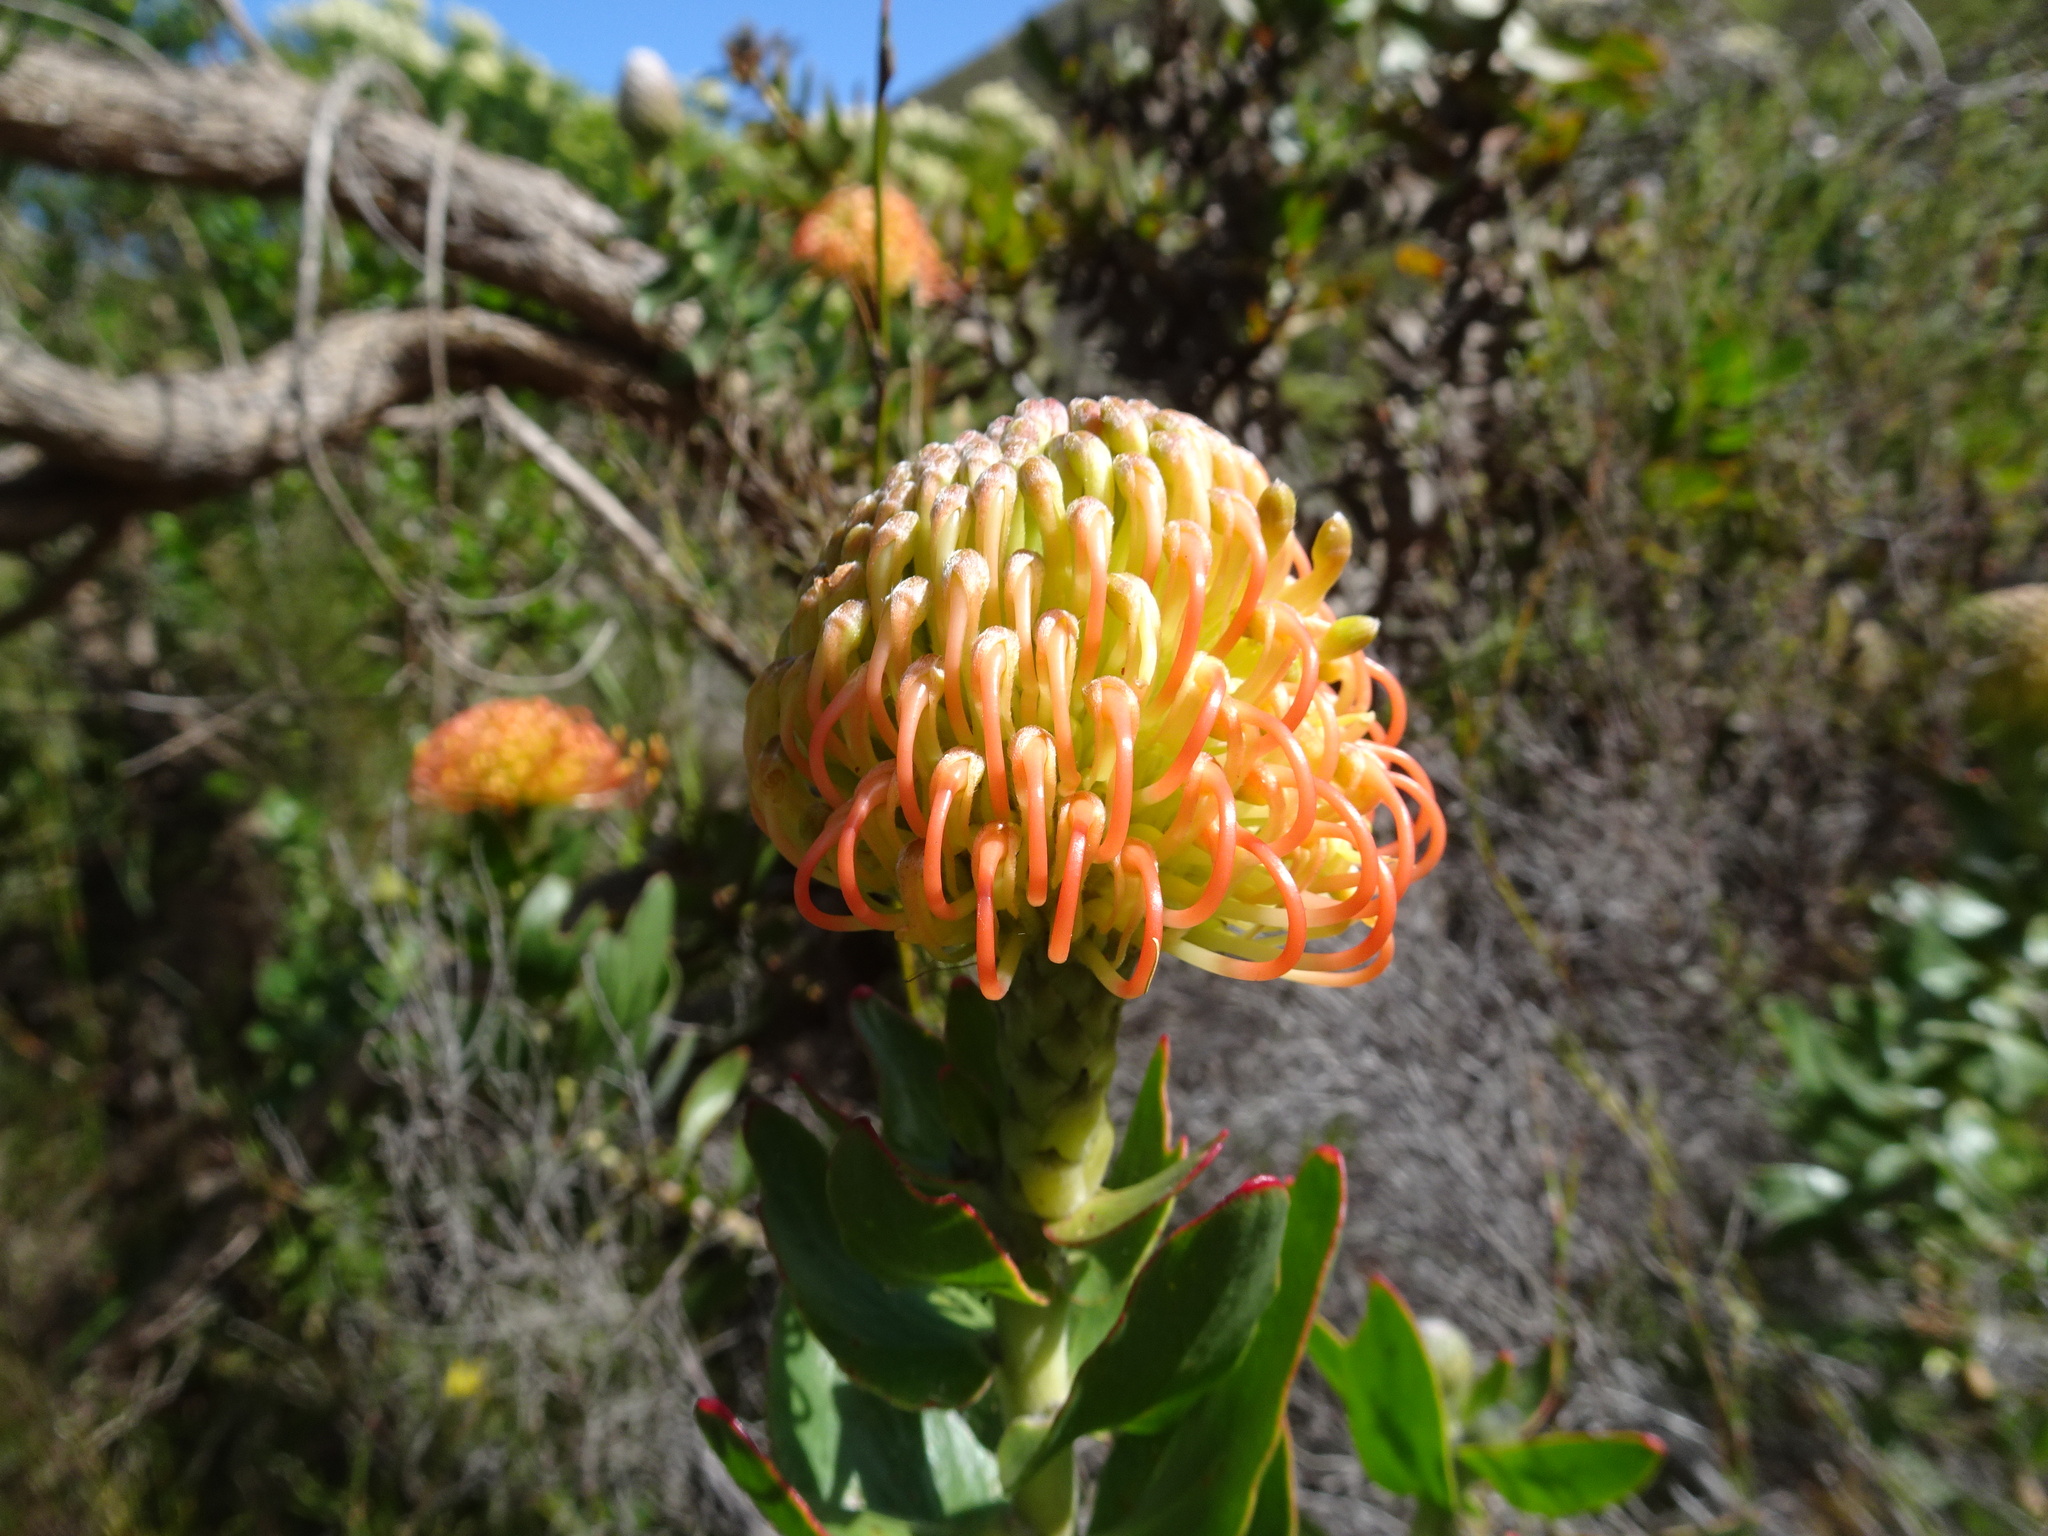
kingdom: Plantae
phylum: Tracheophyta
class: Magnoliopsida
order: Proteales
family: Proteaceae
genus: Leucospermum
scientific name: Leucospermum cordifolium
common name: Red pincushion-protea
